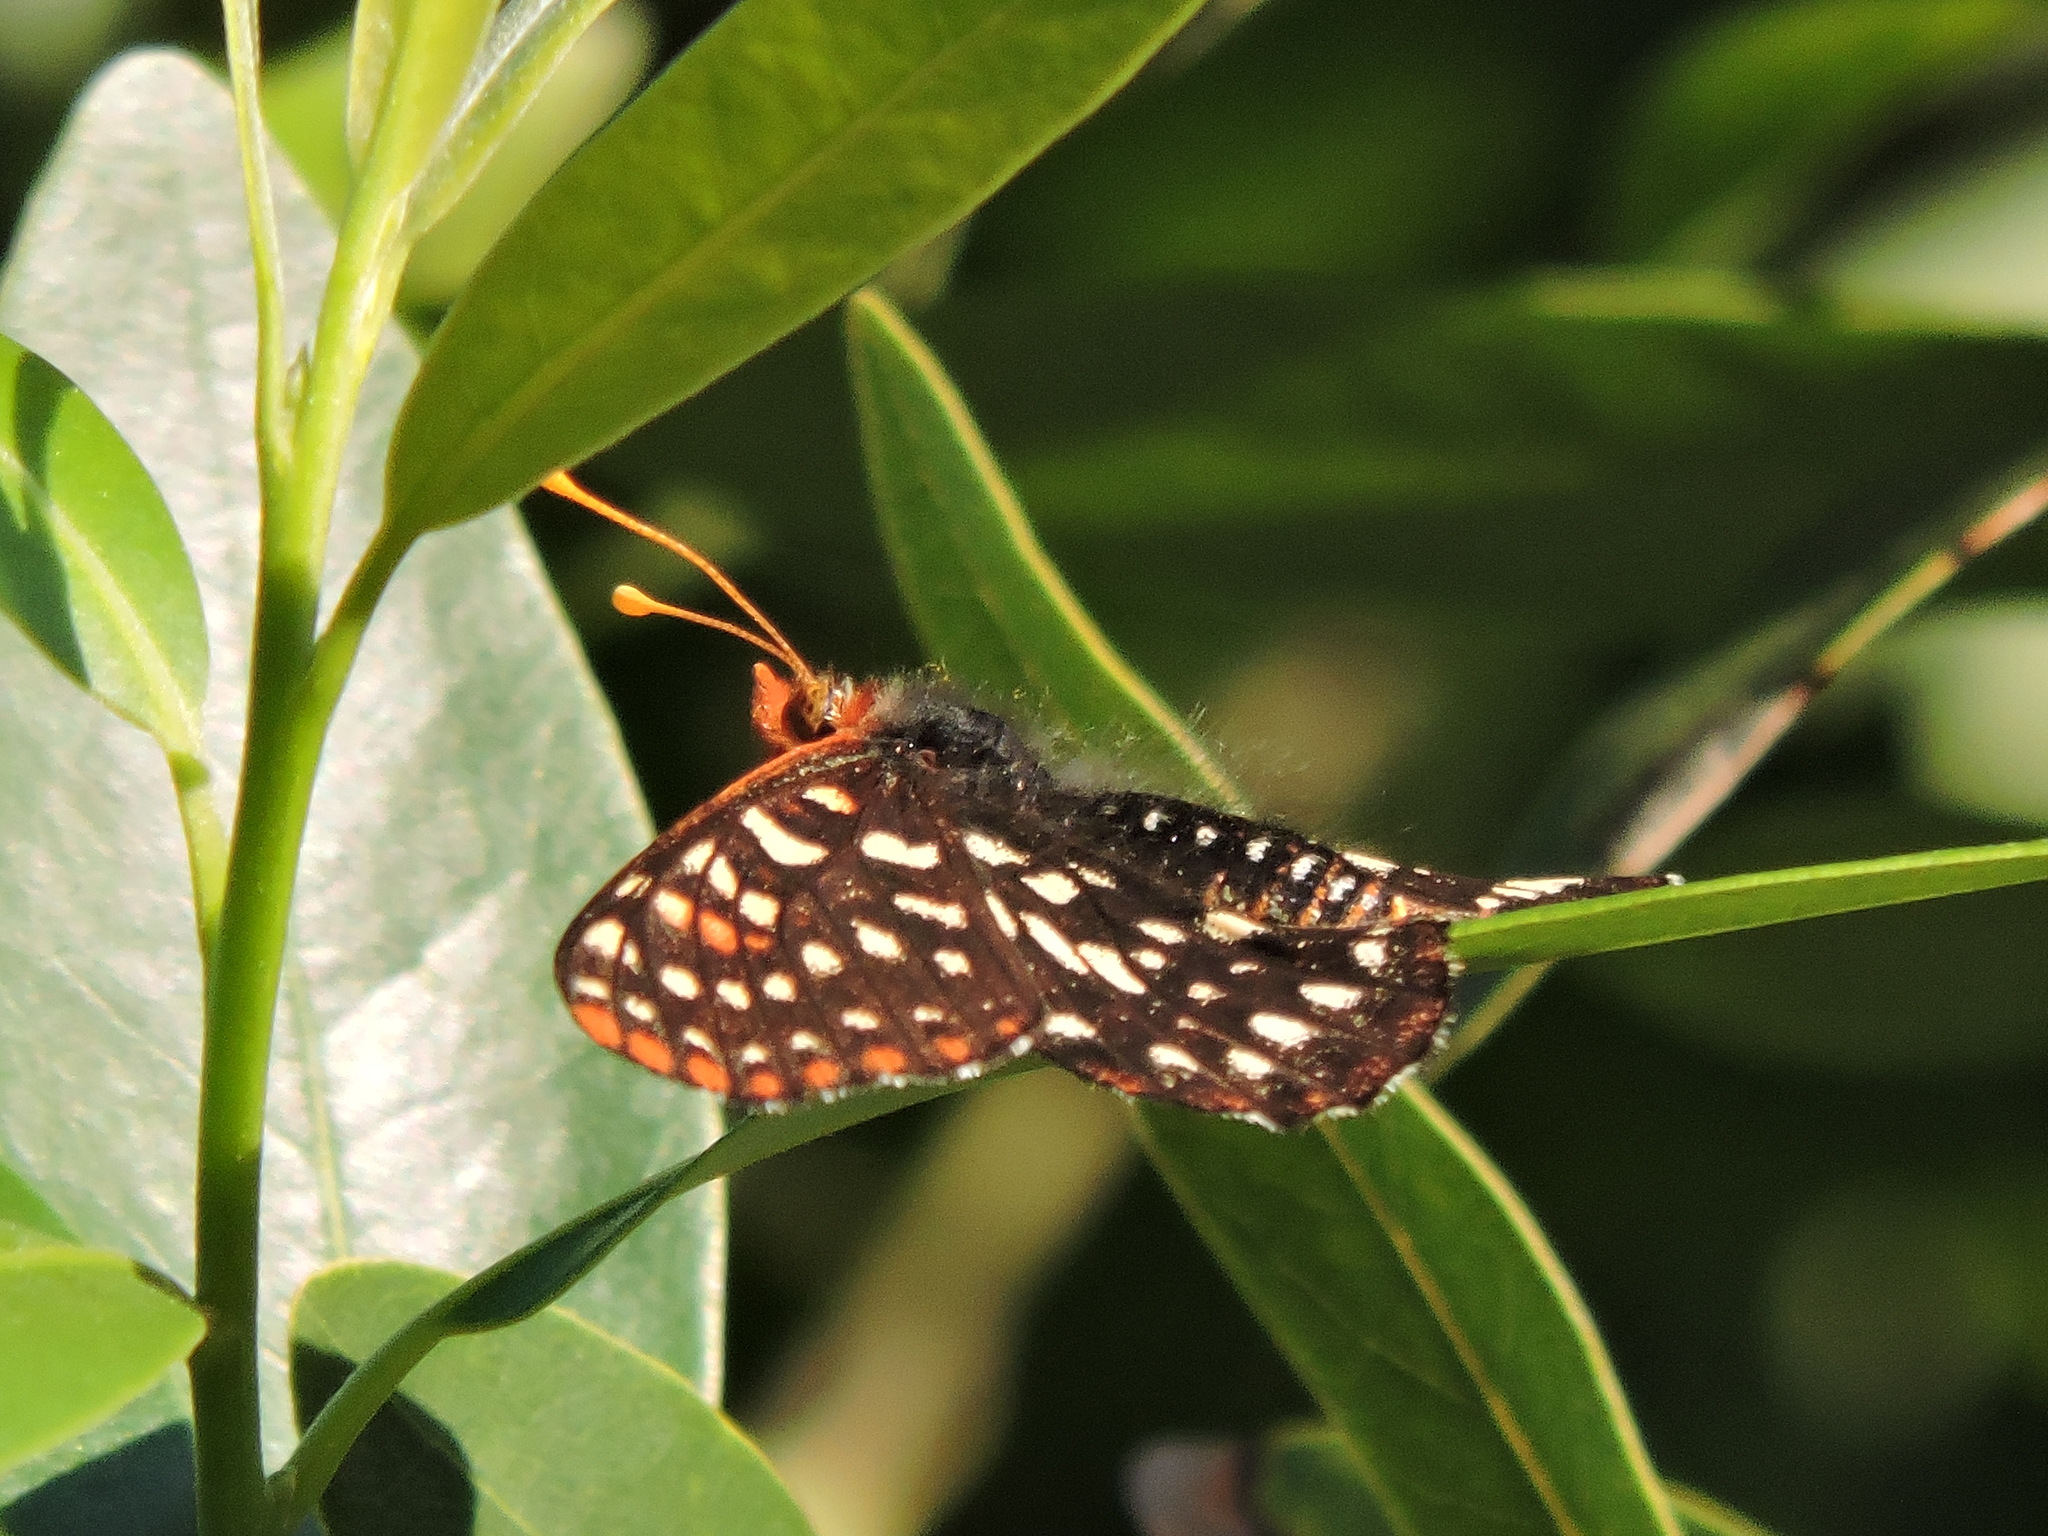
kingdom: Animalia
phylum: Arthropoda
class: Insecta
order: Lepidoptera
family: Nymphalidae
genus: Occidryas
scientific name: Occidryas chalcedona
